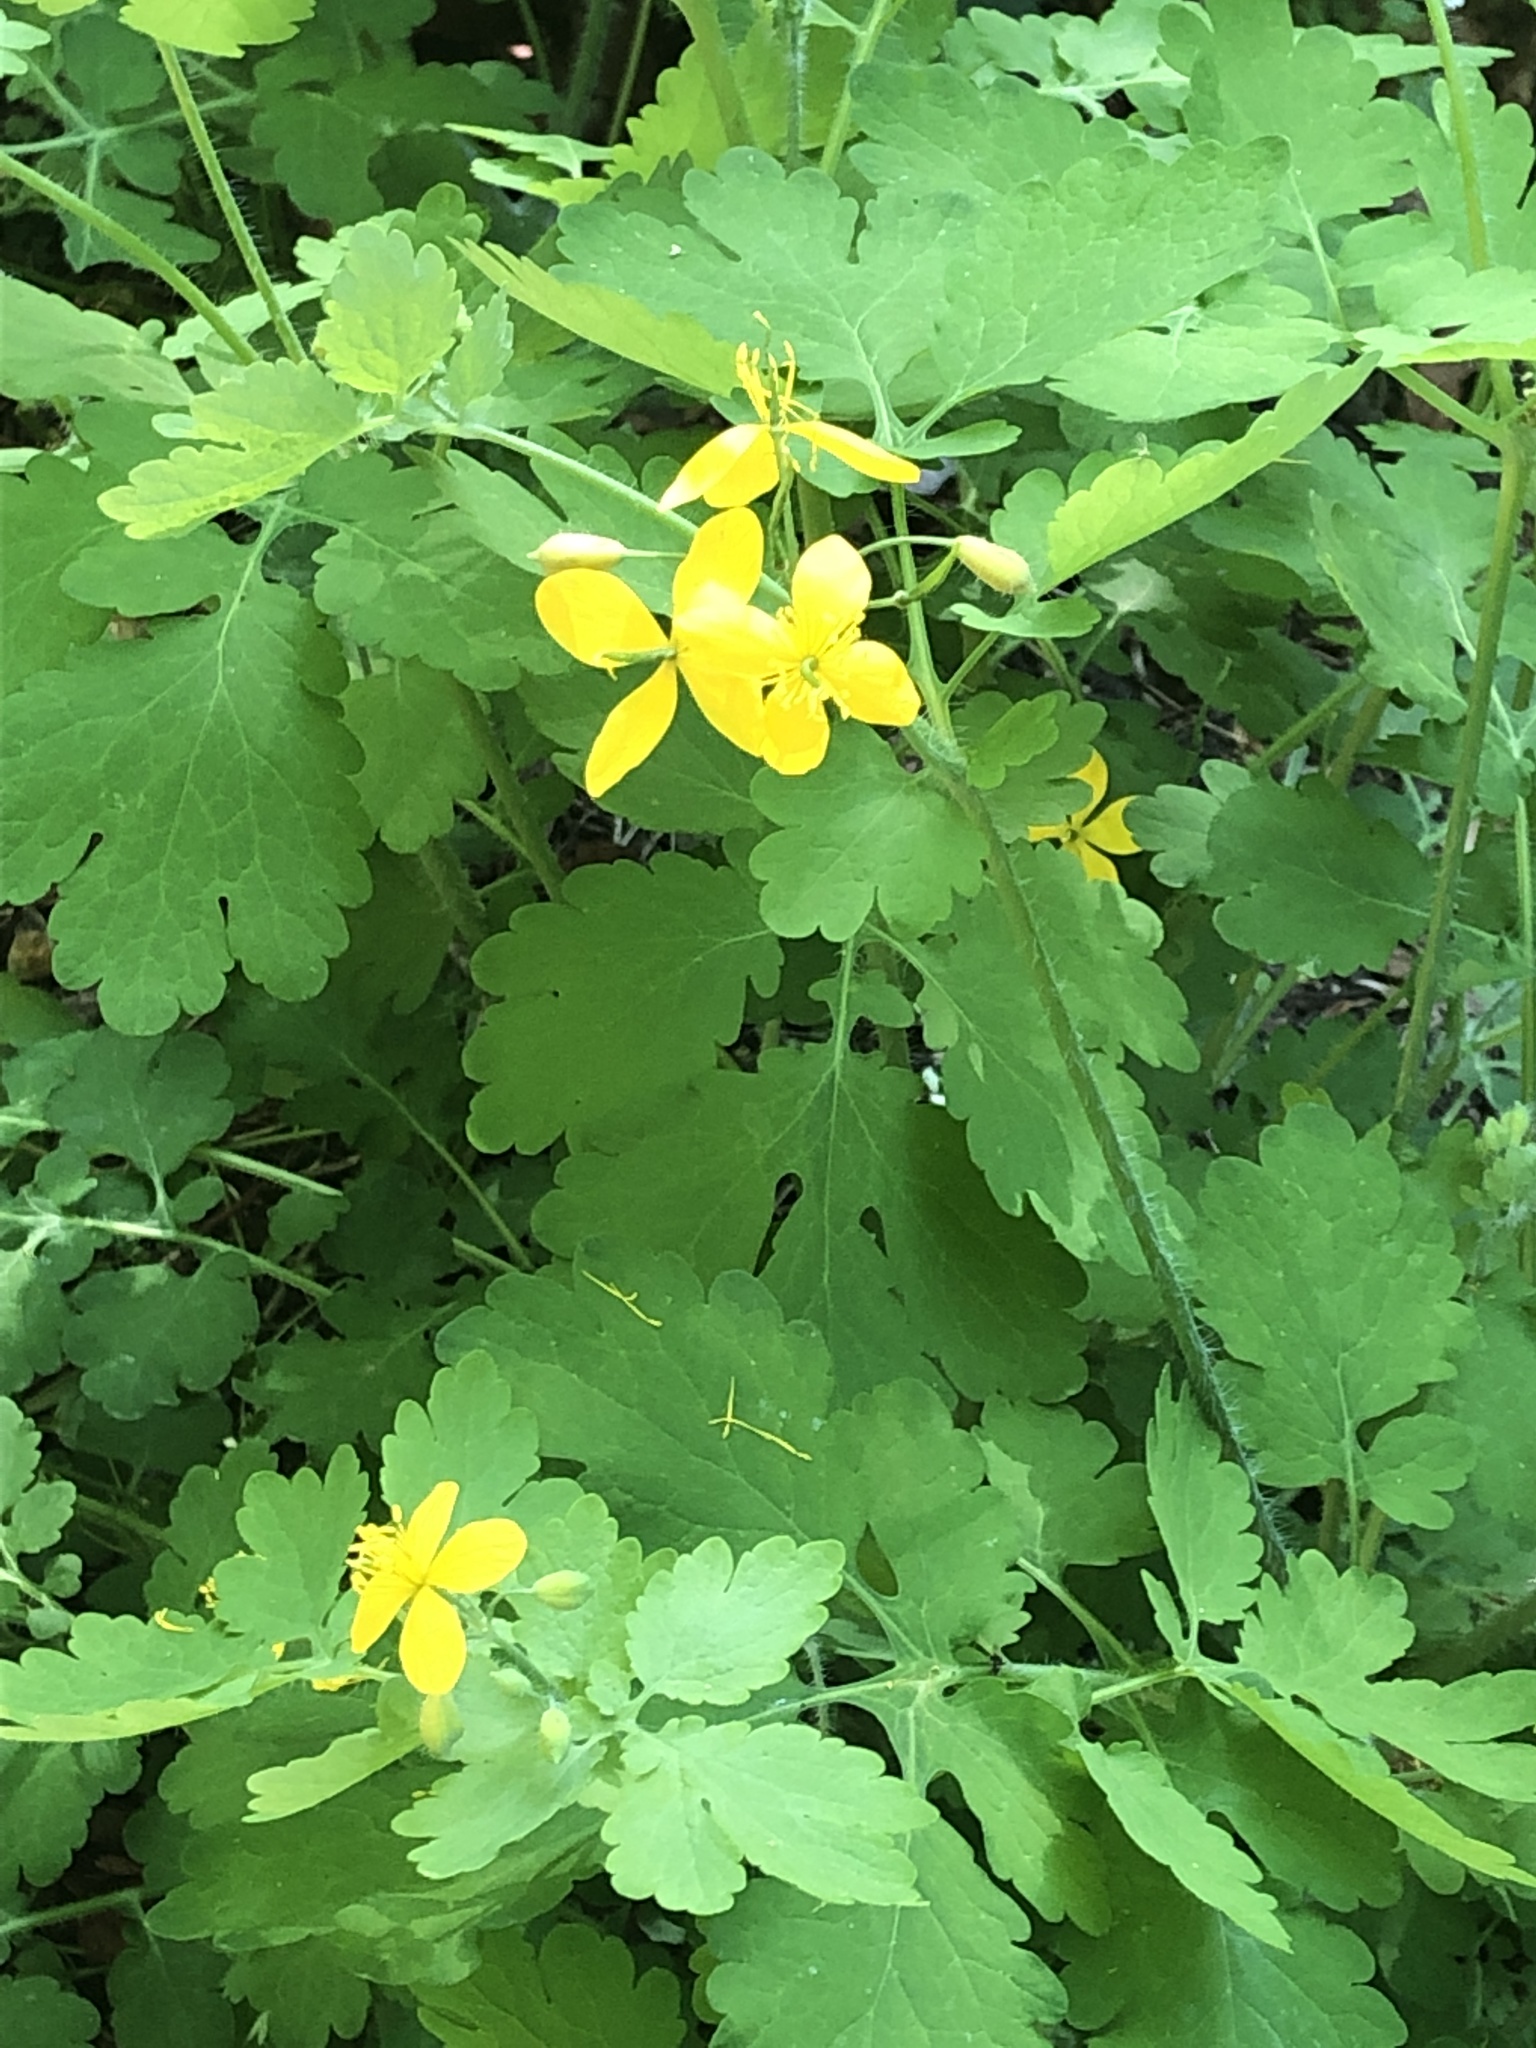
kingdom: Plantae
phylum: Tracheophyta
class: Magnoliopsida
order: Ranunculales
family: Papaveraceae
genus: Chelidonium
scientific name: Chelidonium majus
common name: Greater celandine
